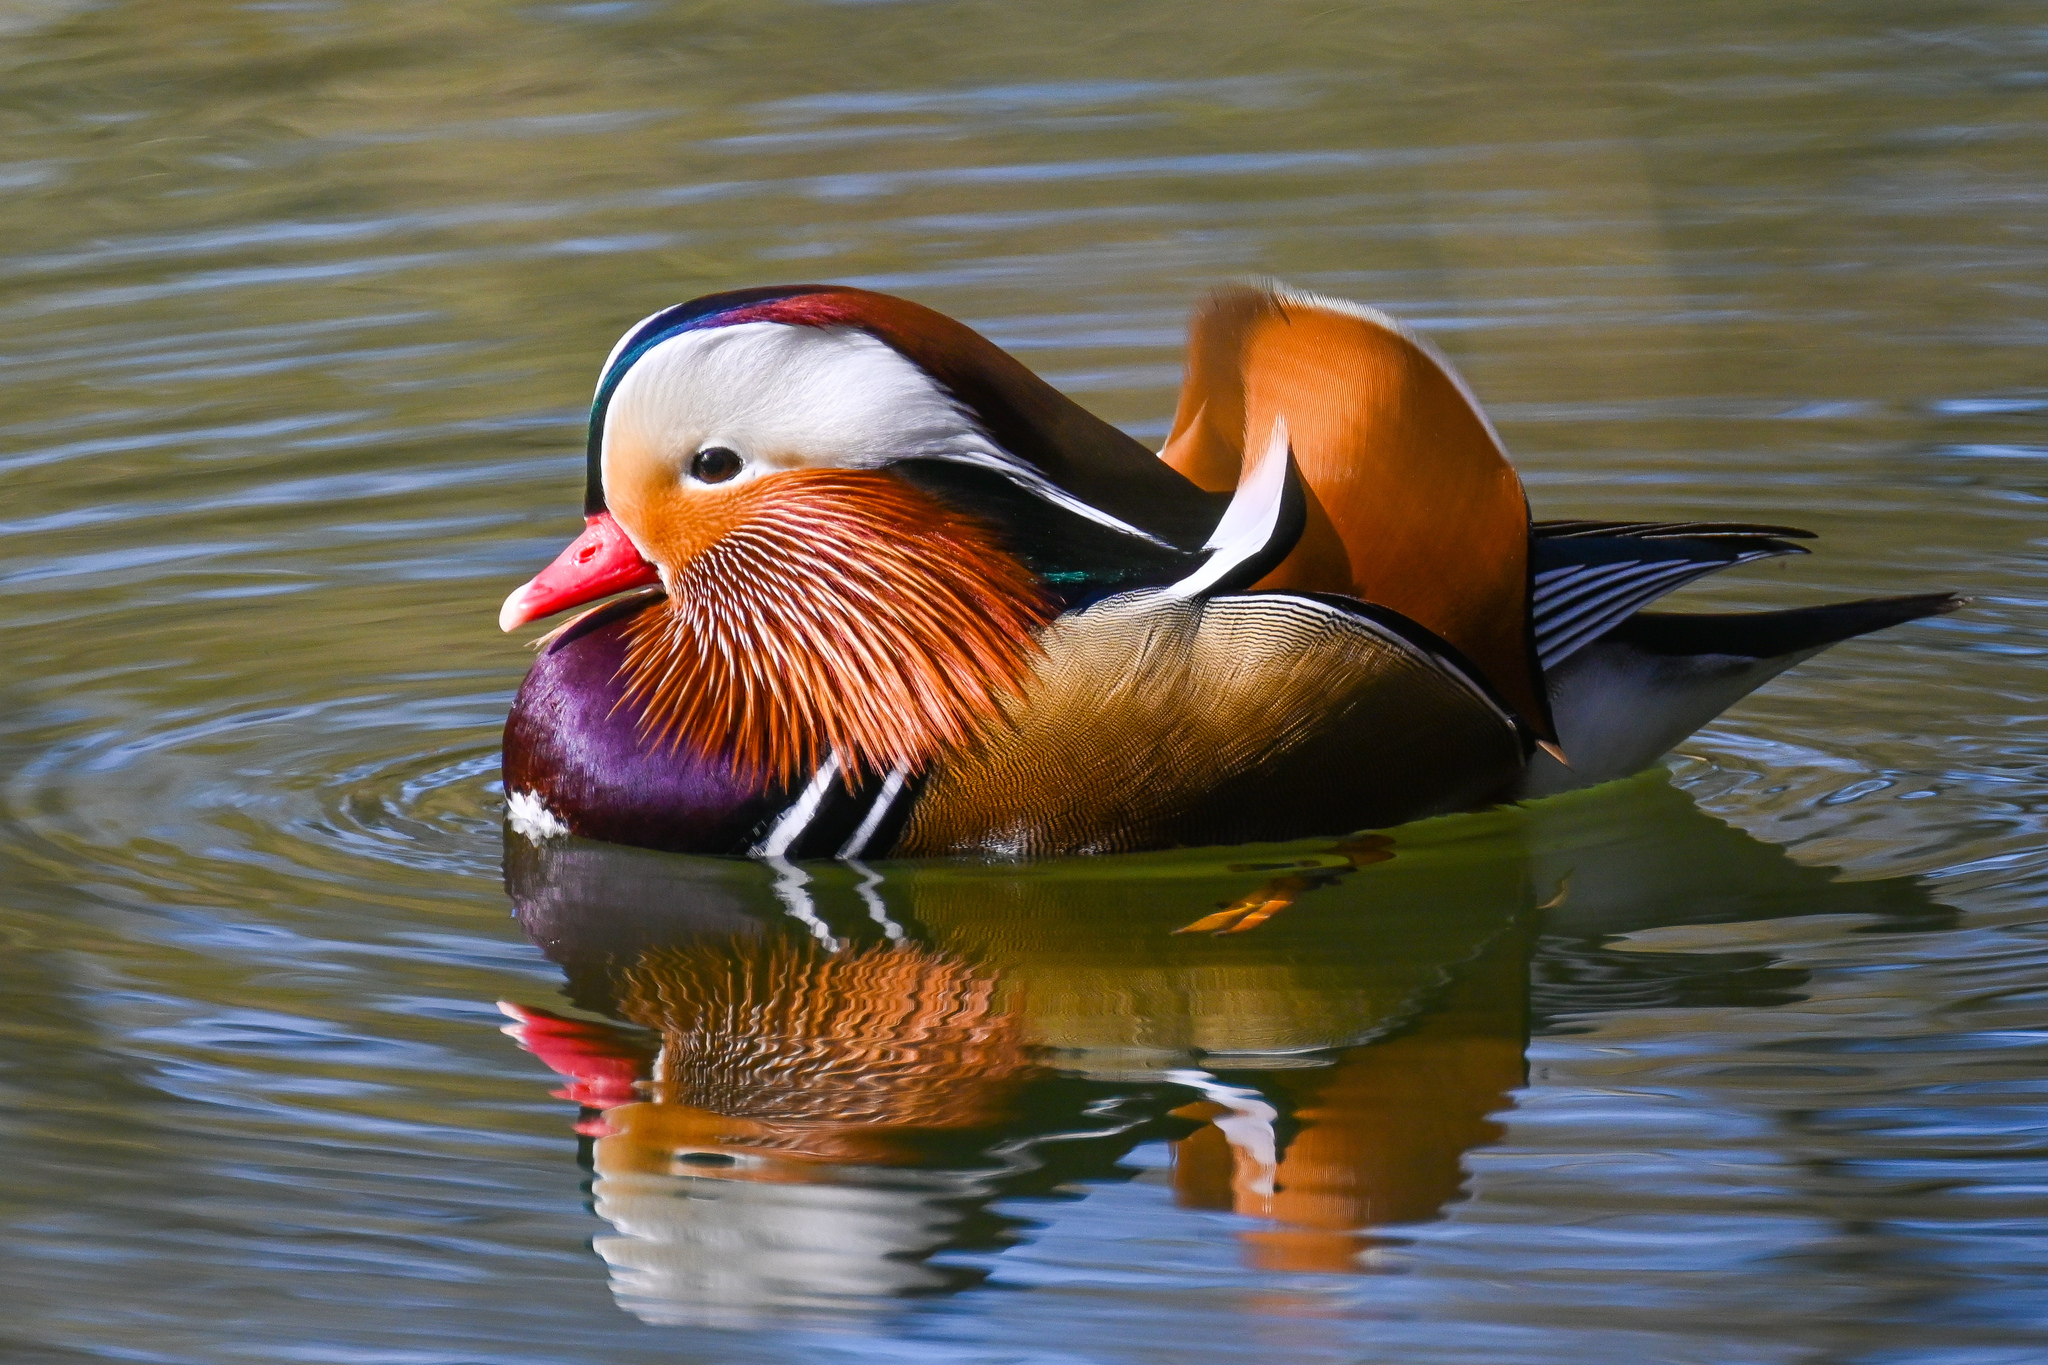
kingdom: Animalia
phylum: Chordata
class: Aves
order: Anseriformes
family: Anatidae
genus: Aix
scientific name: Aix galericulata
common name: Mandarin duck
